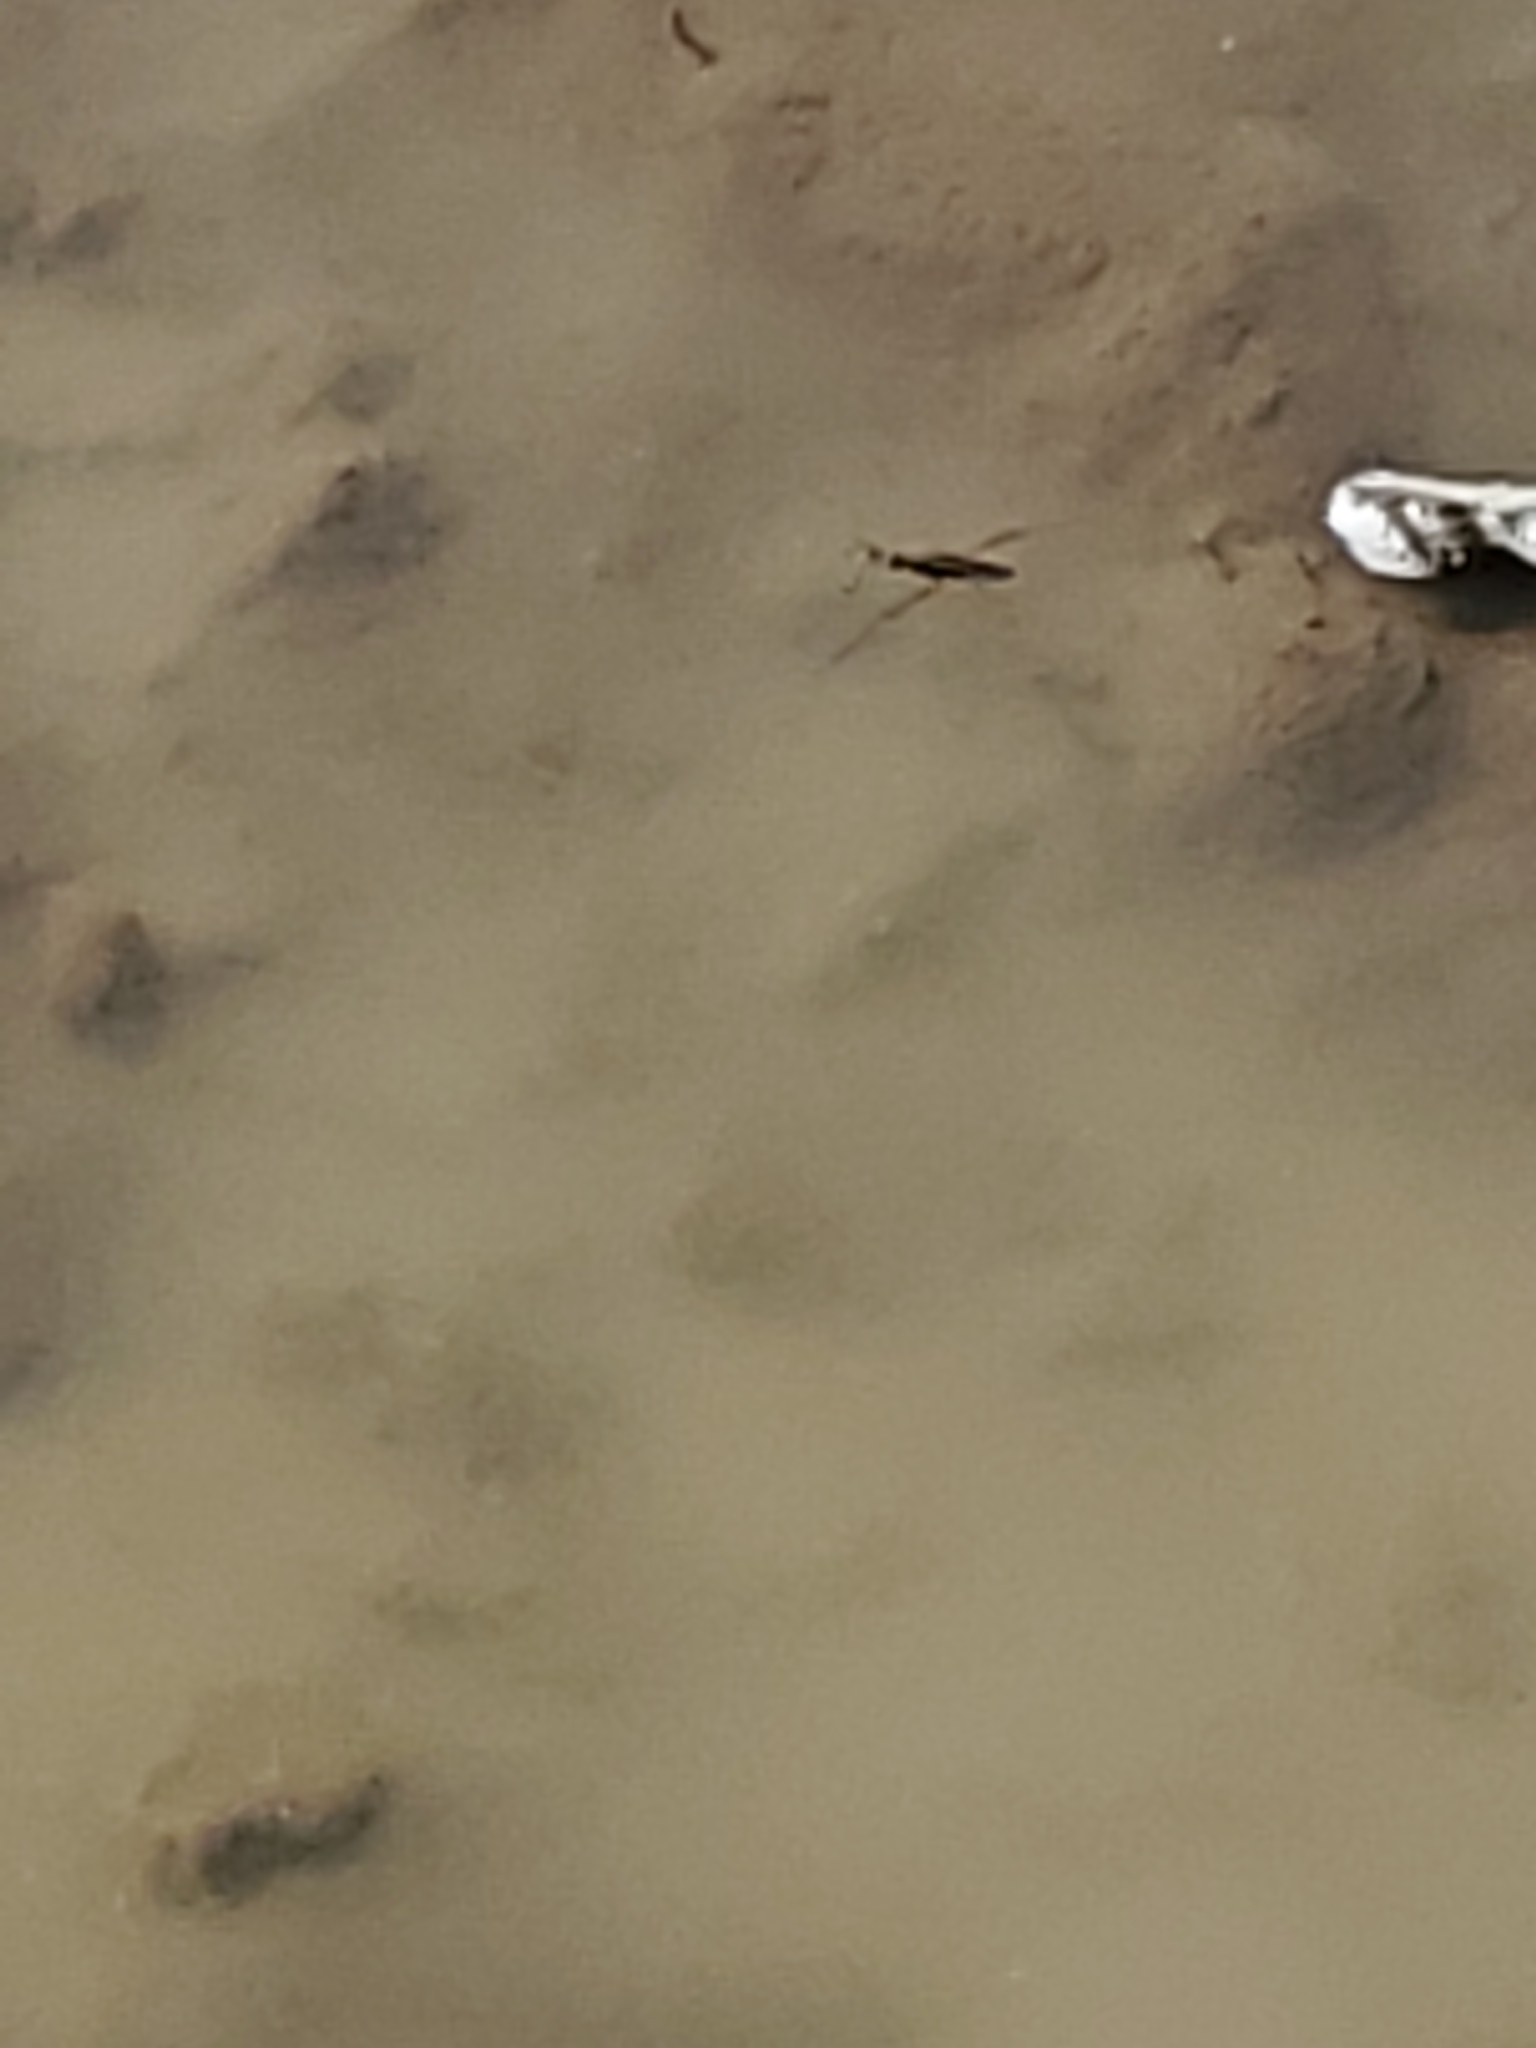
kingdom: Animalia
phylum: Arthropoda
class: Insecta
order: Hemiptera
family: Gerridae
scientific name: Gerridae
